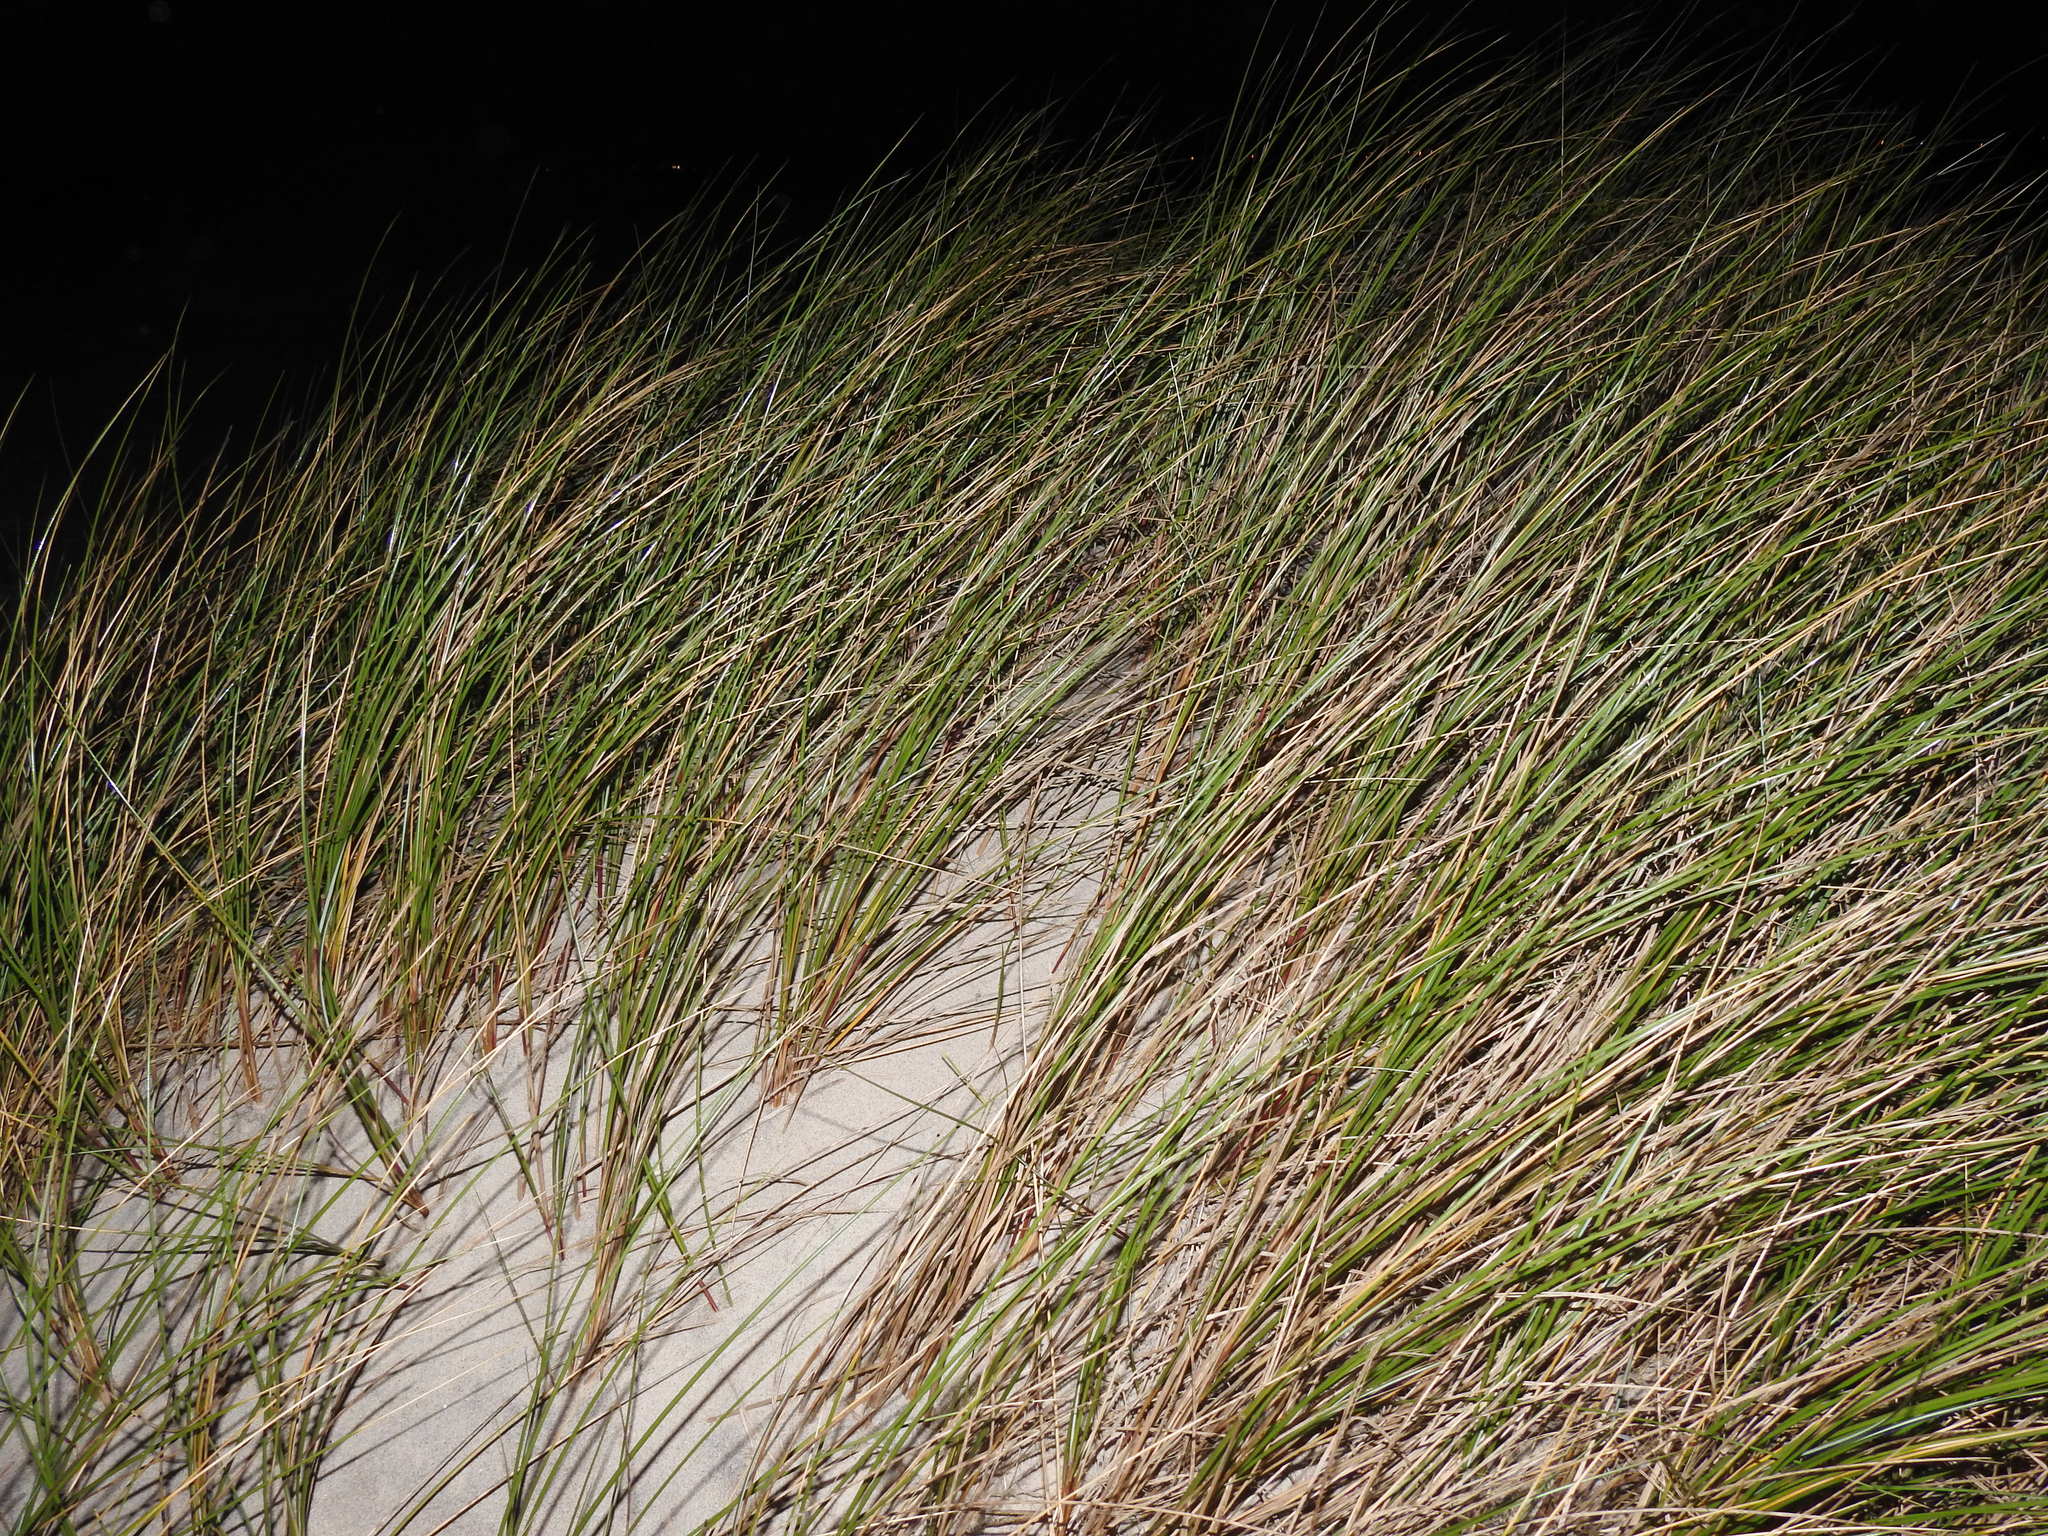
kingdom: Plantae
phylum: Tracheophyta
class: Liliopsida
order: Poales
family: Poaceae
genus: Calamagrostis
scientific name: Calamagrostis arenaria
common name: European beachgrass
